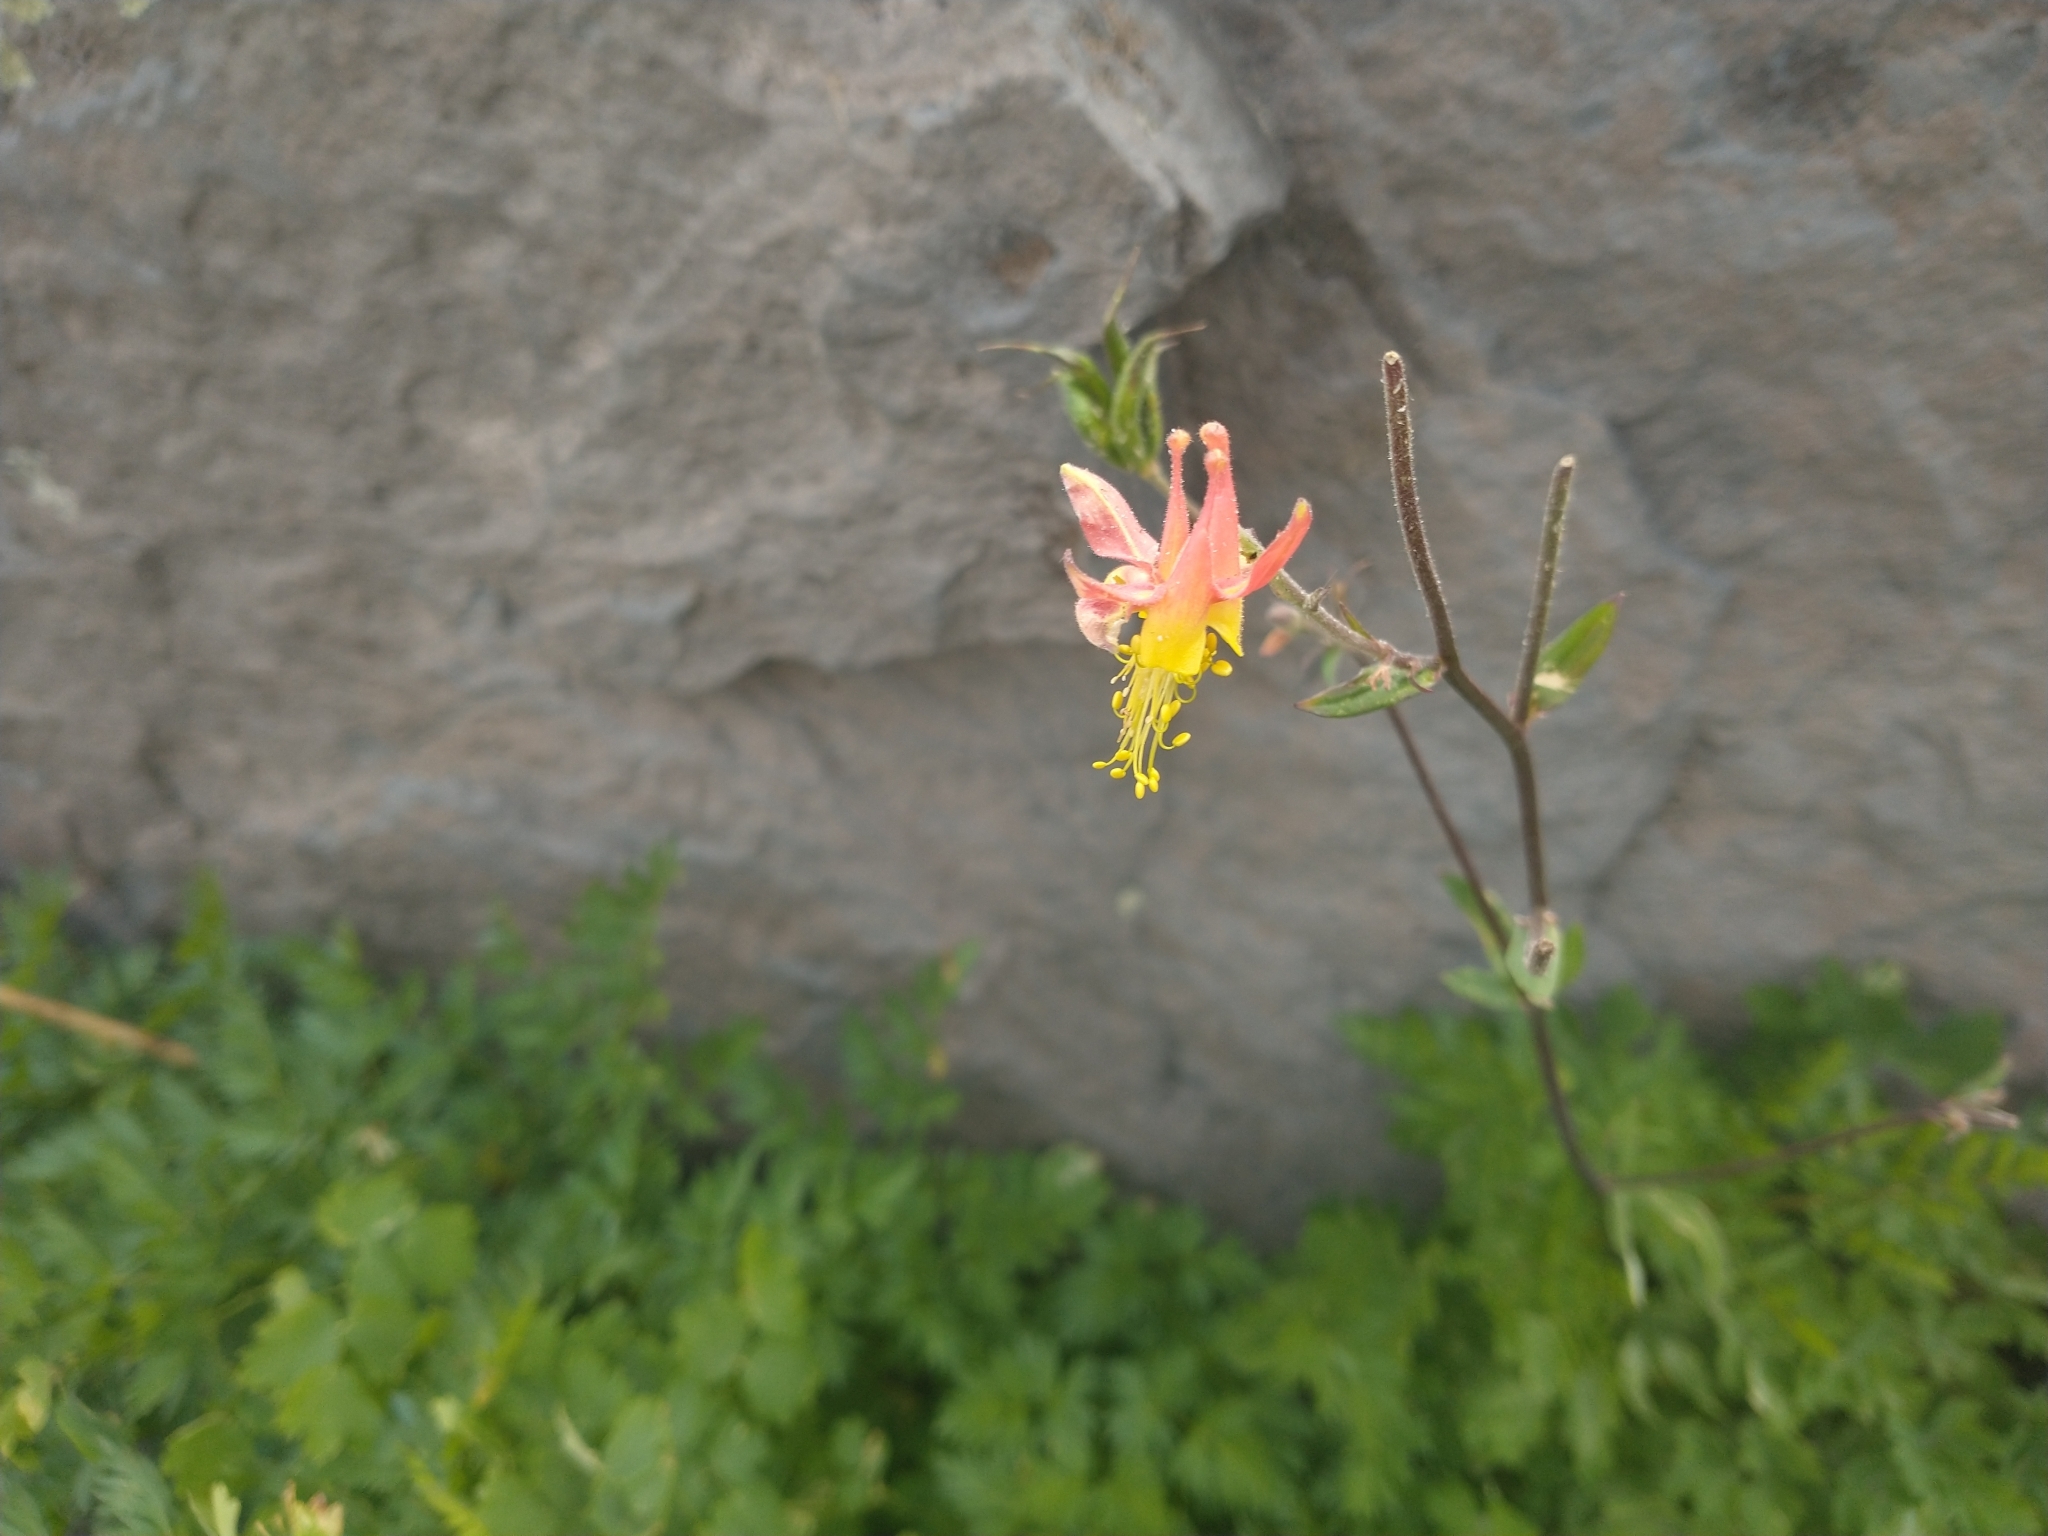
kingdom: Plantae
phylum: Tracheophyta
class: Magnoliopsida
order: Ranunculales
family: Ranunculaceae
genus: Aquilegia
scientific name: Aquilegia formosa
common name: Sitka columbine
